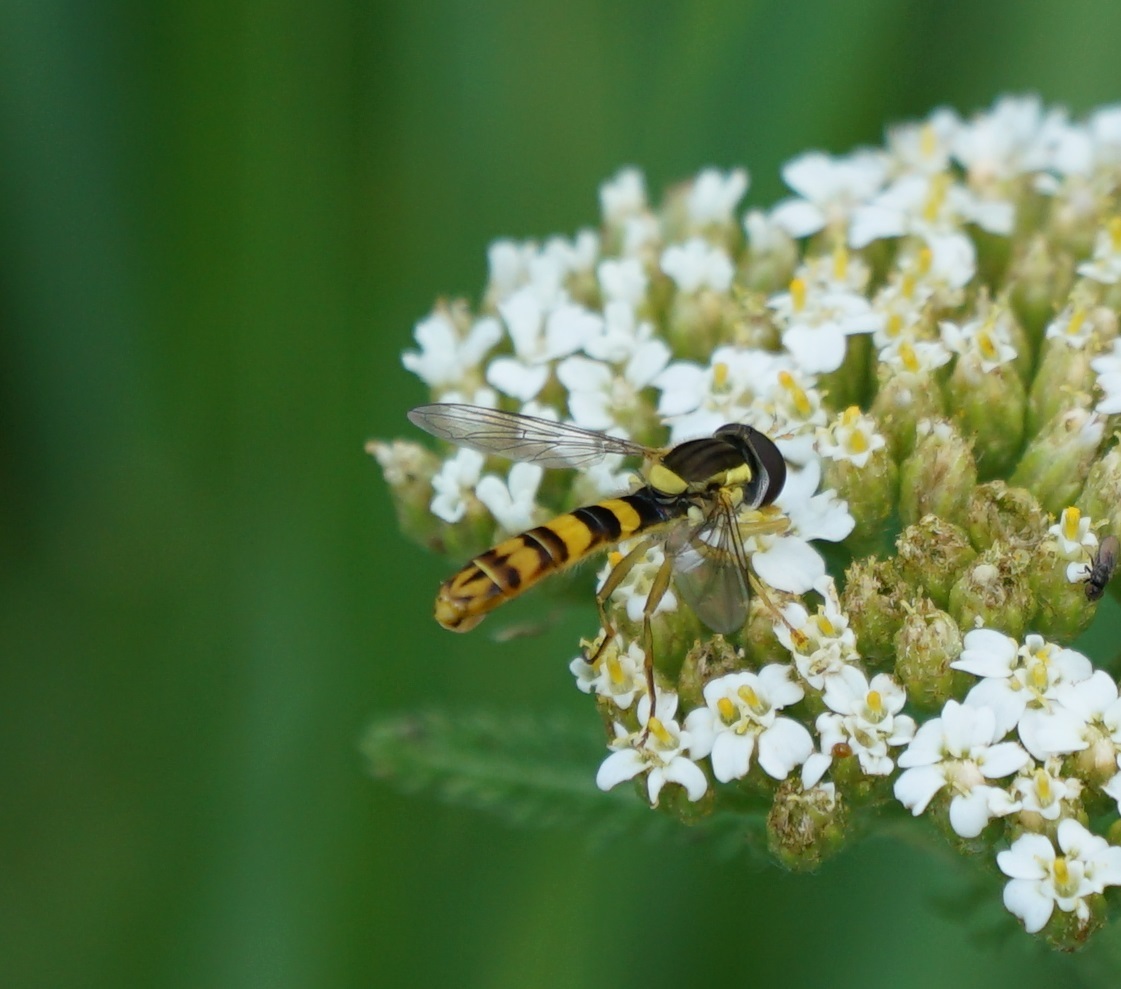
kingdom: Animalia
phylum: Arthropoda
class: Insecta
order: Diptera
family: Syrphidae
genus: Sphaerophoria
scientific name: Sphaerophoria scripta
